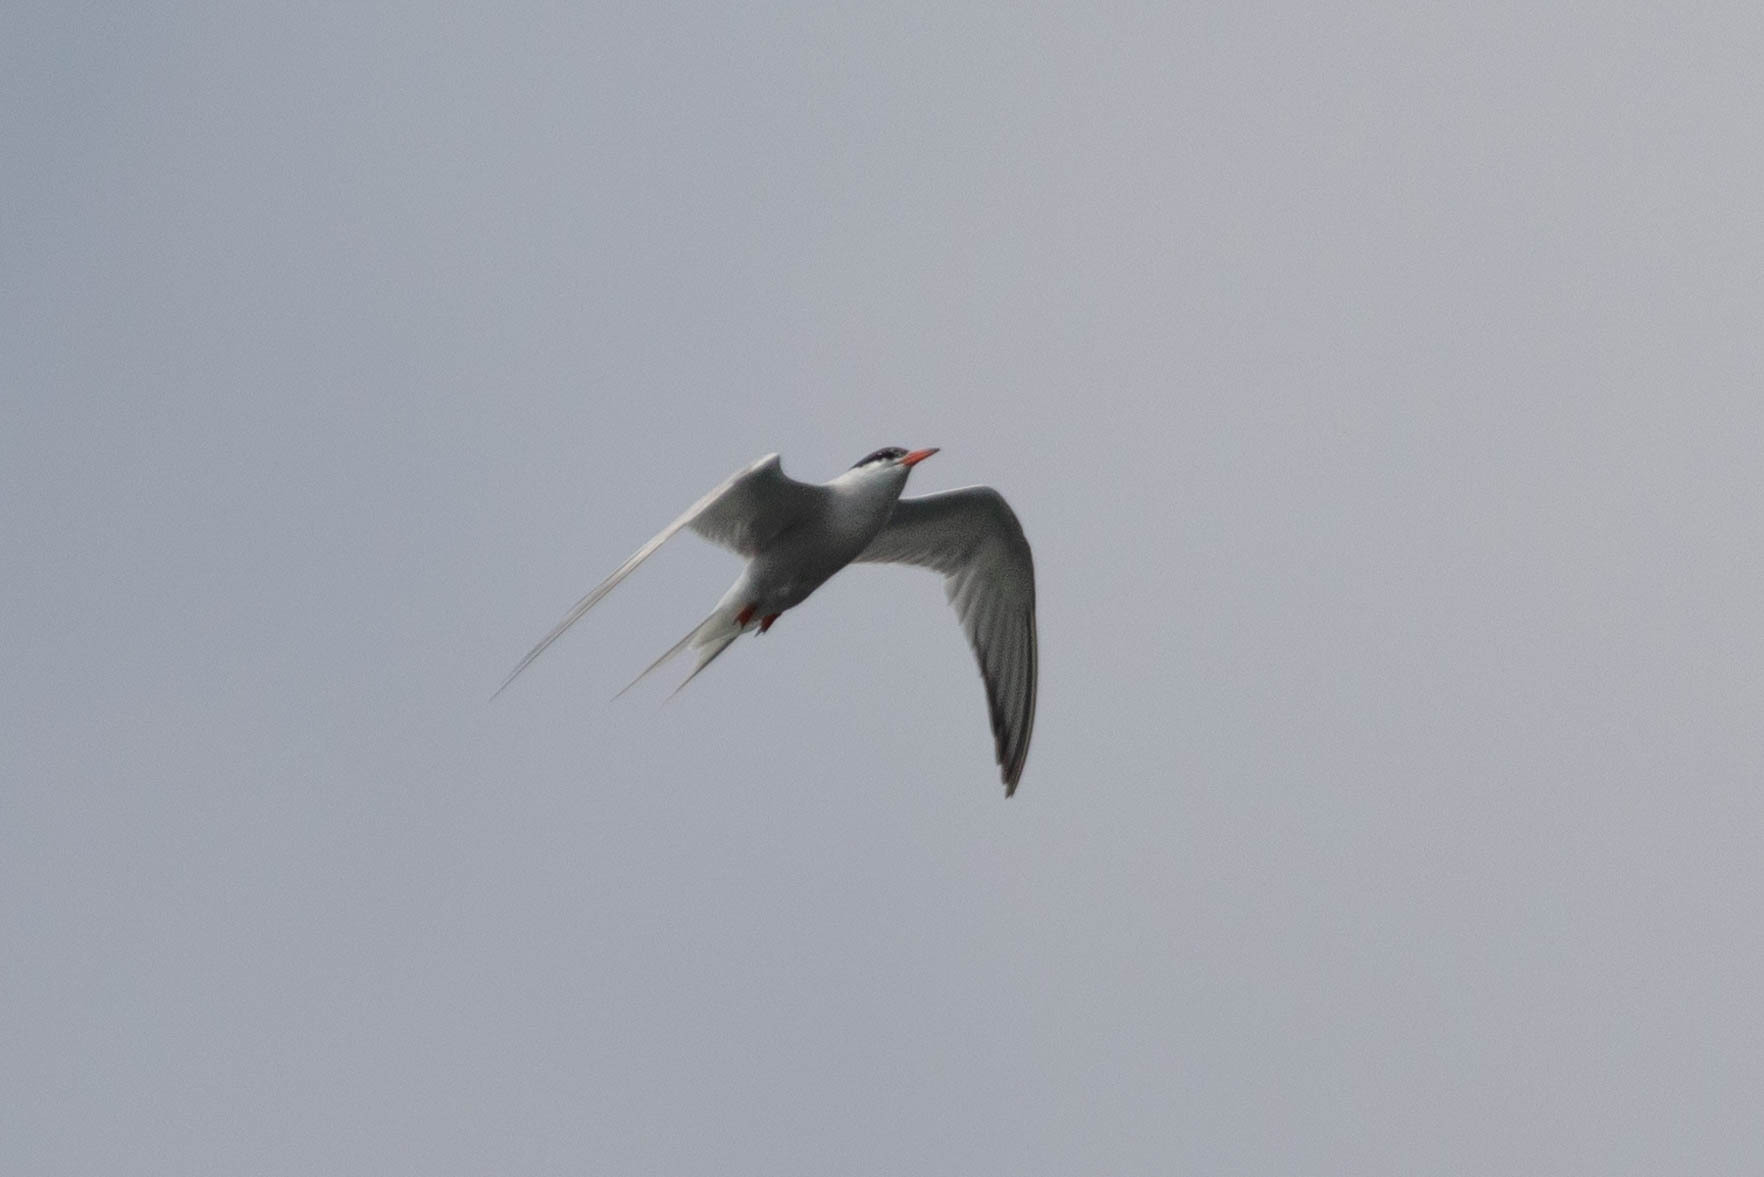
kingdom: Animalia
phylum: Chordata
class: Aves
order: Charadriiformes
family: Laridae
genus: Sterna
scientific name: Sterna hirundo
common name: Common tern
